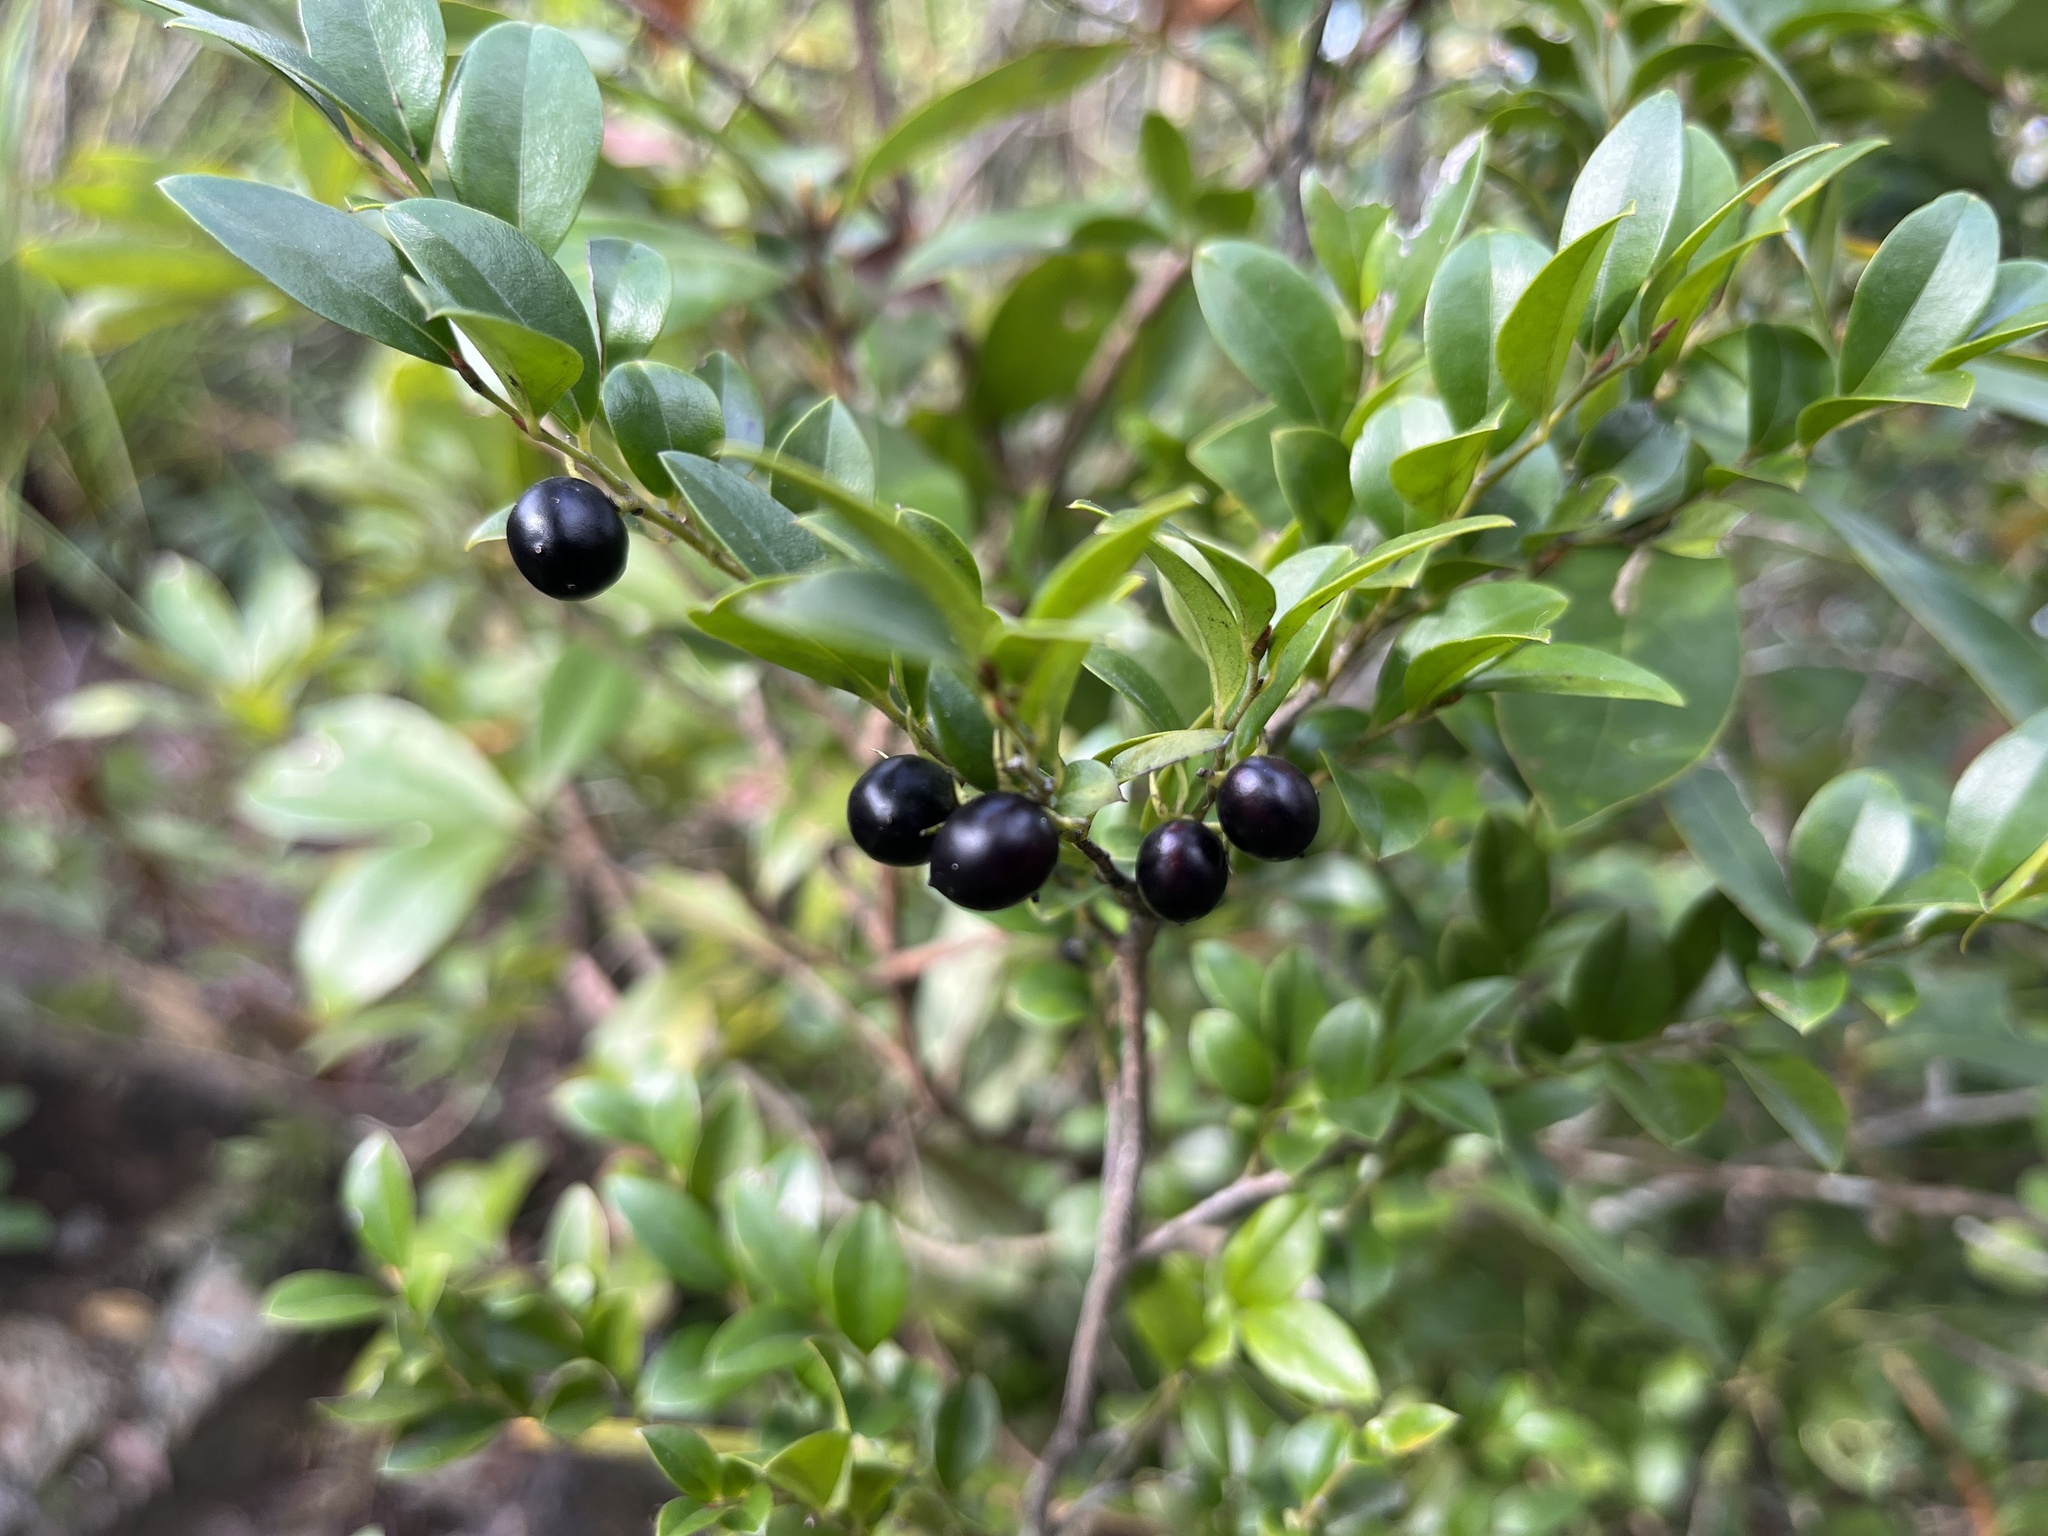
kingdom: Plantae
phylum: Tracheophyta
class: Magnoliopsida
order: Ericales
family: Ebenaceae
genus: Diospyros
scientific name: Diospyros vaccinioides
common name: Small persimmon
